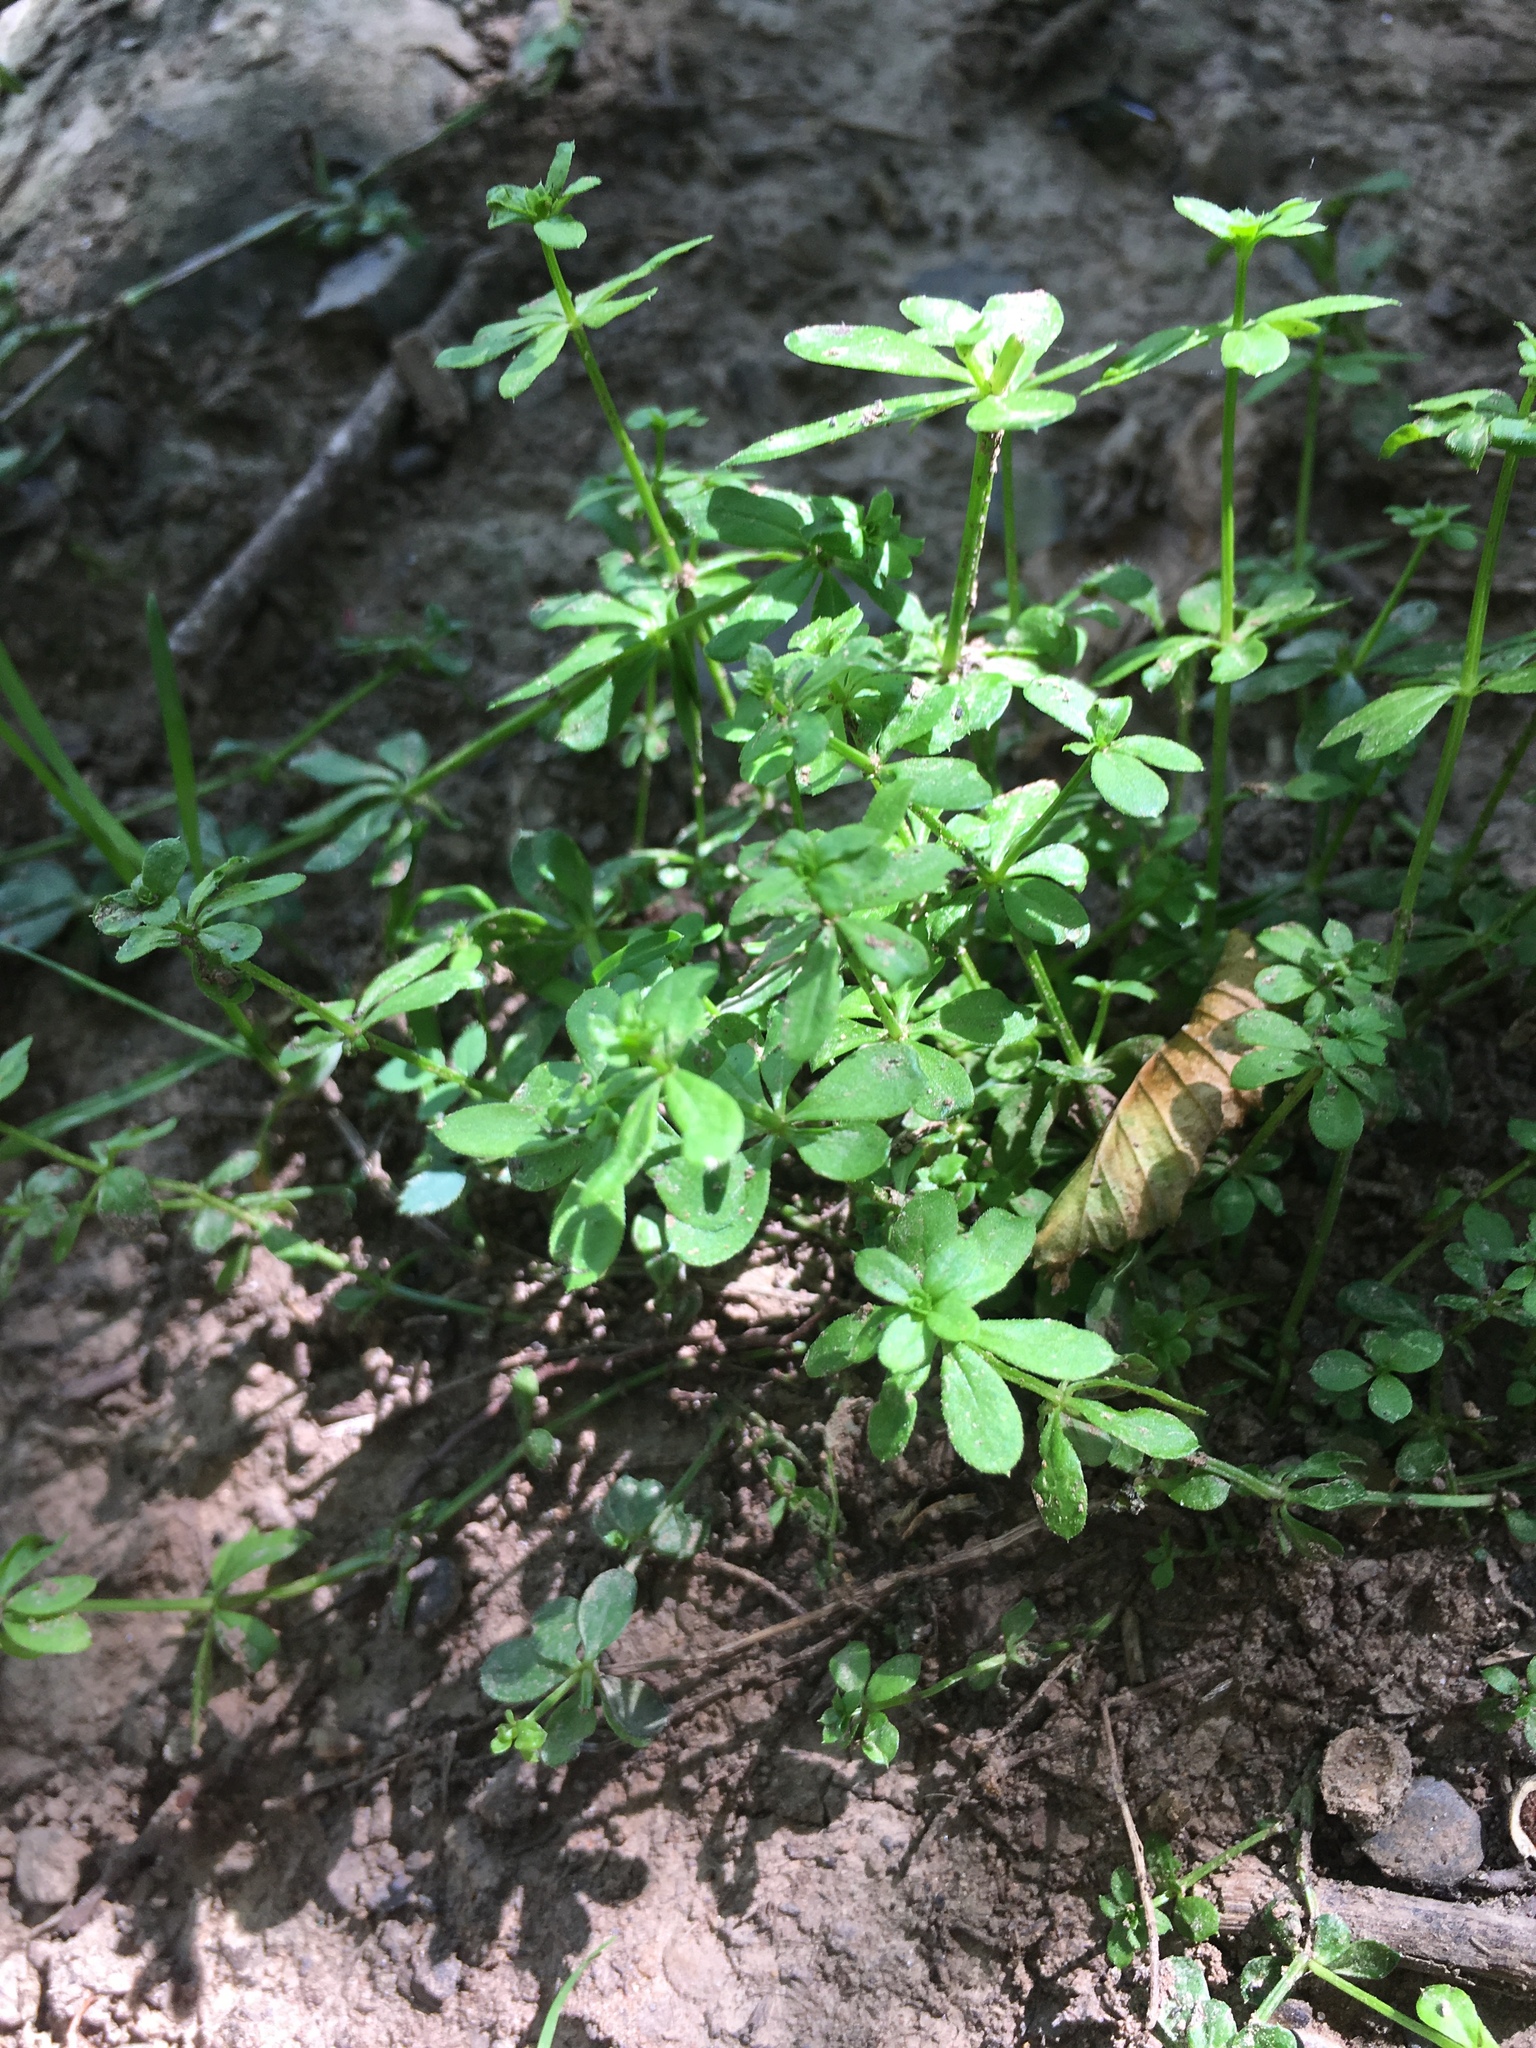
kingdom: Plantae
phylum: Tracheophyta
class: Magnoliopsida
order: Gentianales
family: Rubiaceae
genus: Galium
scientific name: Galium aparine
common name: Cleavers
